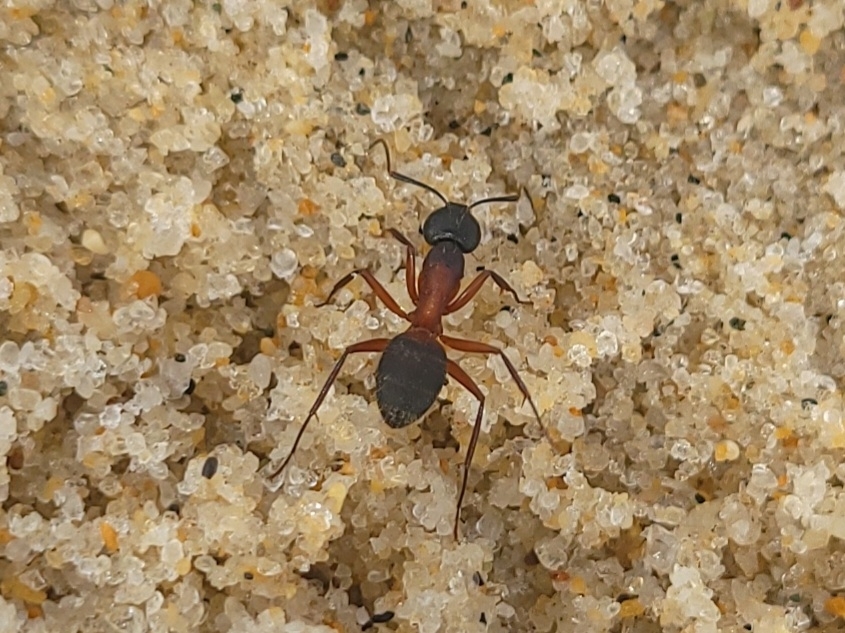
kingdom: Animalia
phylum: Arthropoda
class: Insecta
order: Hymenoptera
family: Formicidae
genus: Camponotus
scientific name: Camponotus chromaiodes
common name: Red carpenter ant
